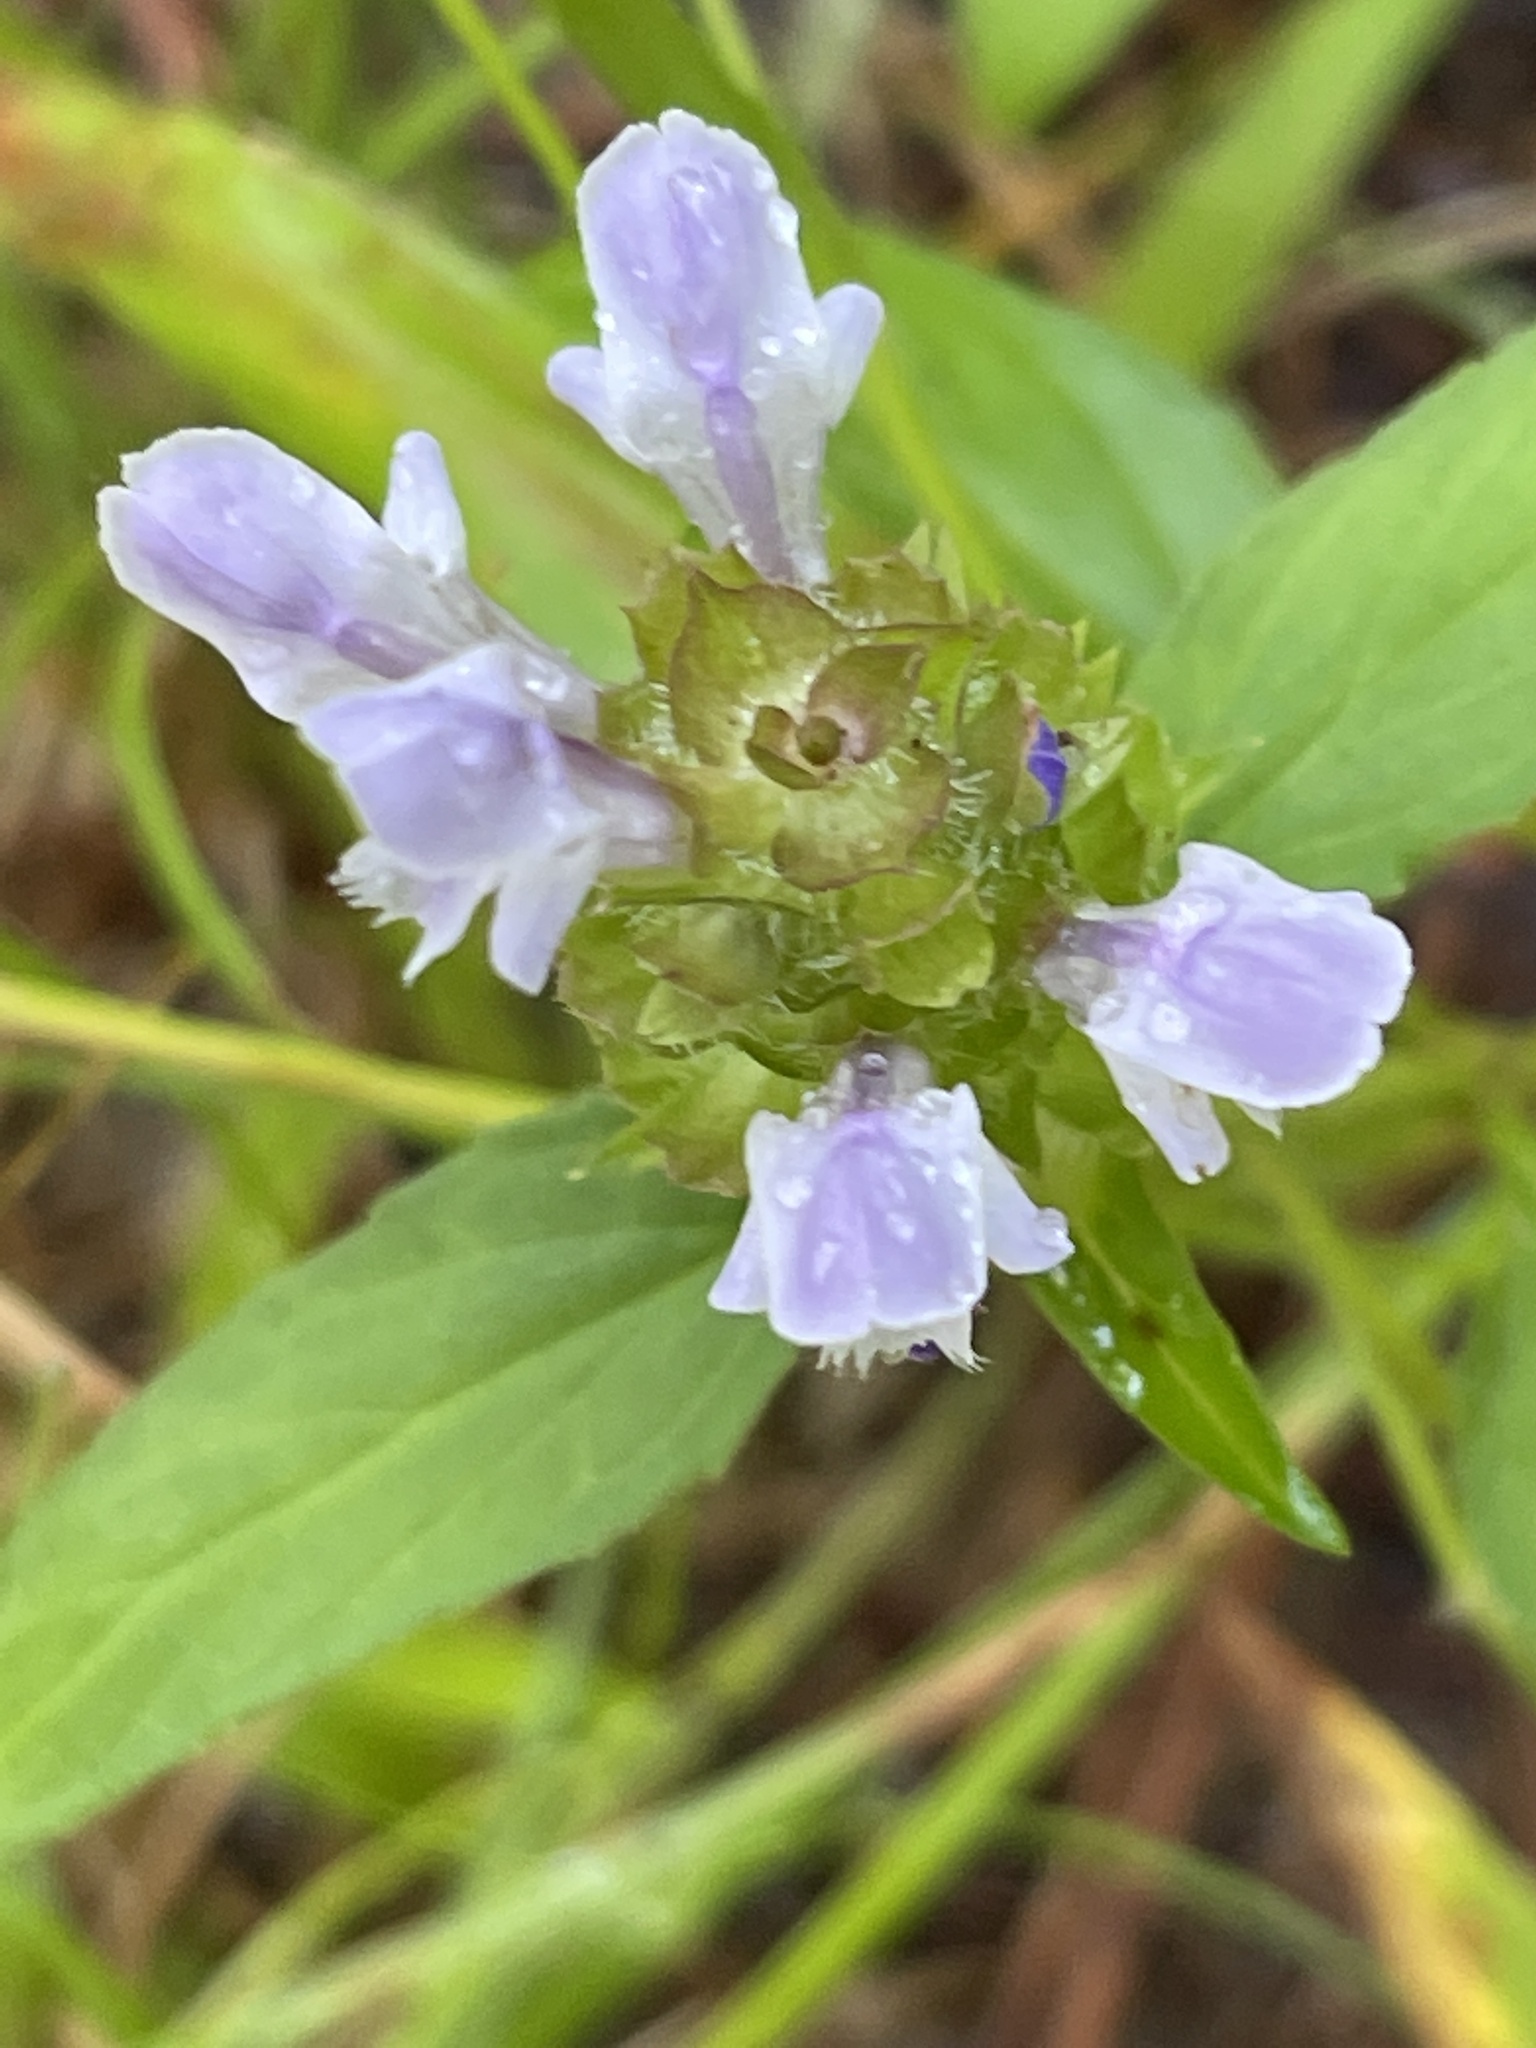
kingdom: Plantae
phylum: Tracheophyta
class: Magnoliopsida
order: Lamiales
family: Lamiaceae
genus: Prunella
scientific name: Prunella vulgaris
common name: Heal-all
